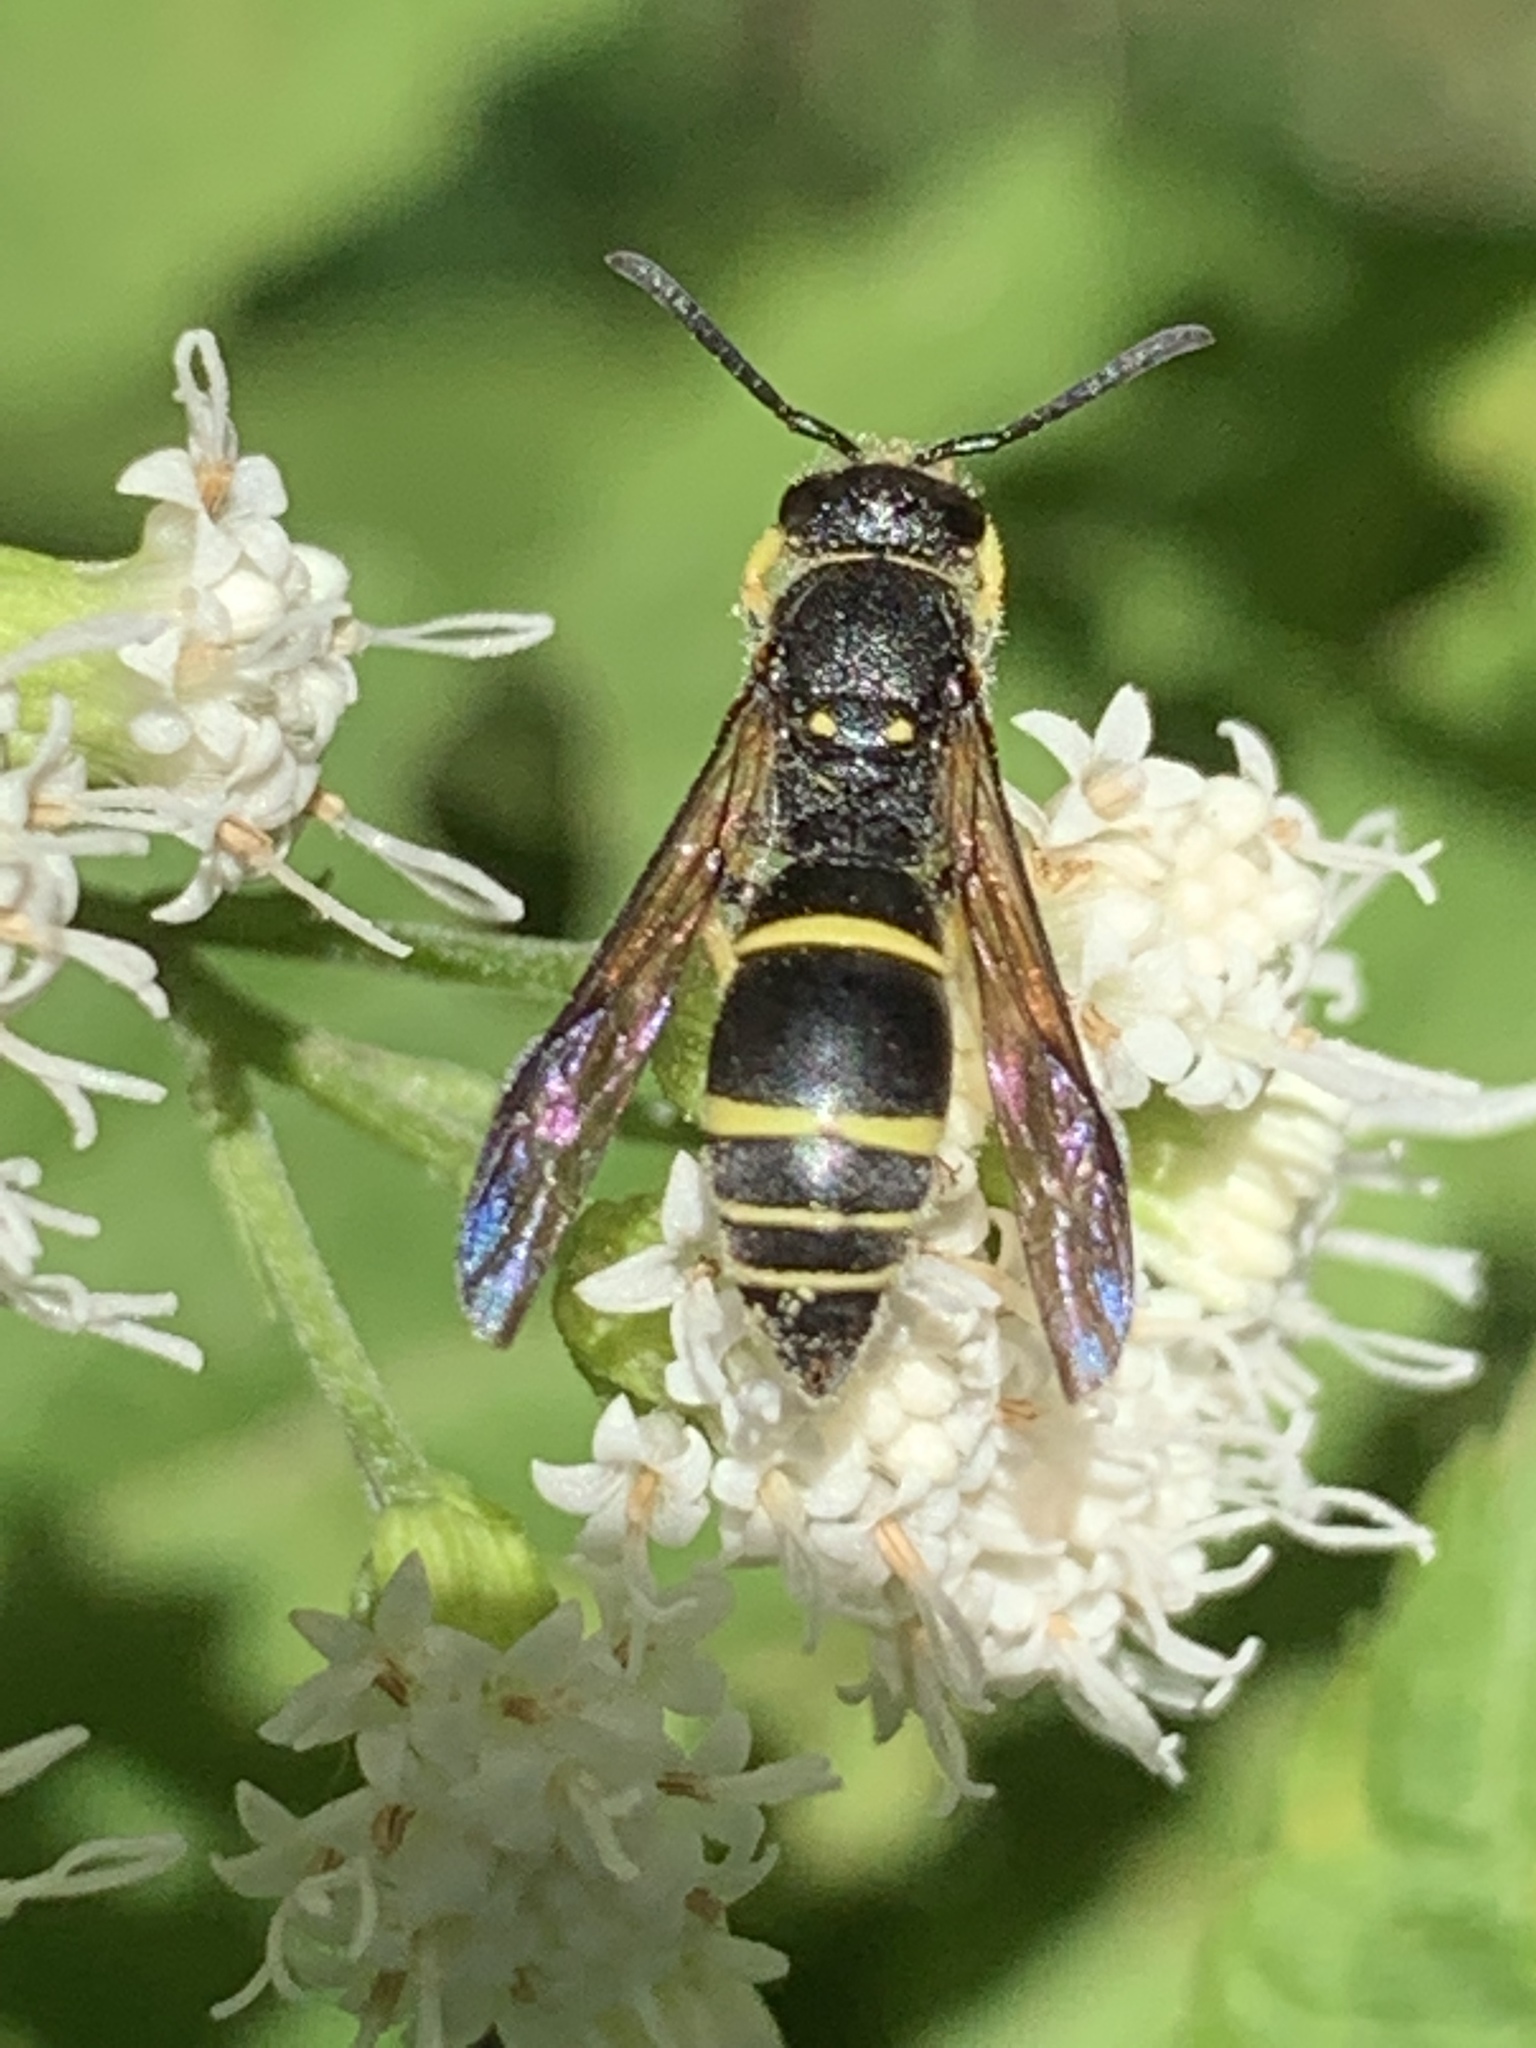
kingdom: Animalia
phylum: Arthropoda
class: Insecta
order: Hymenoptera
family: Vespidae
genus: Ancistrocerus
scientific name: Ancistrocerus
